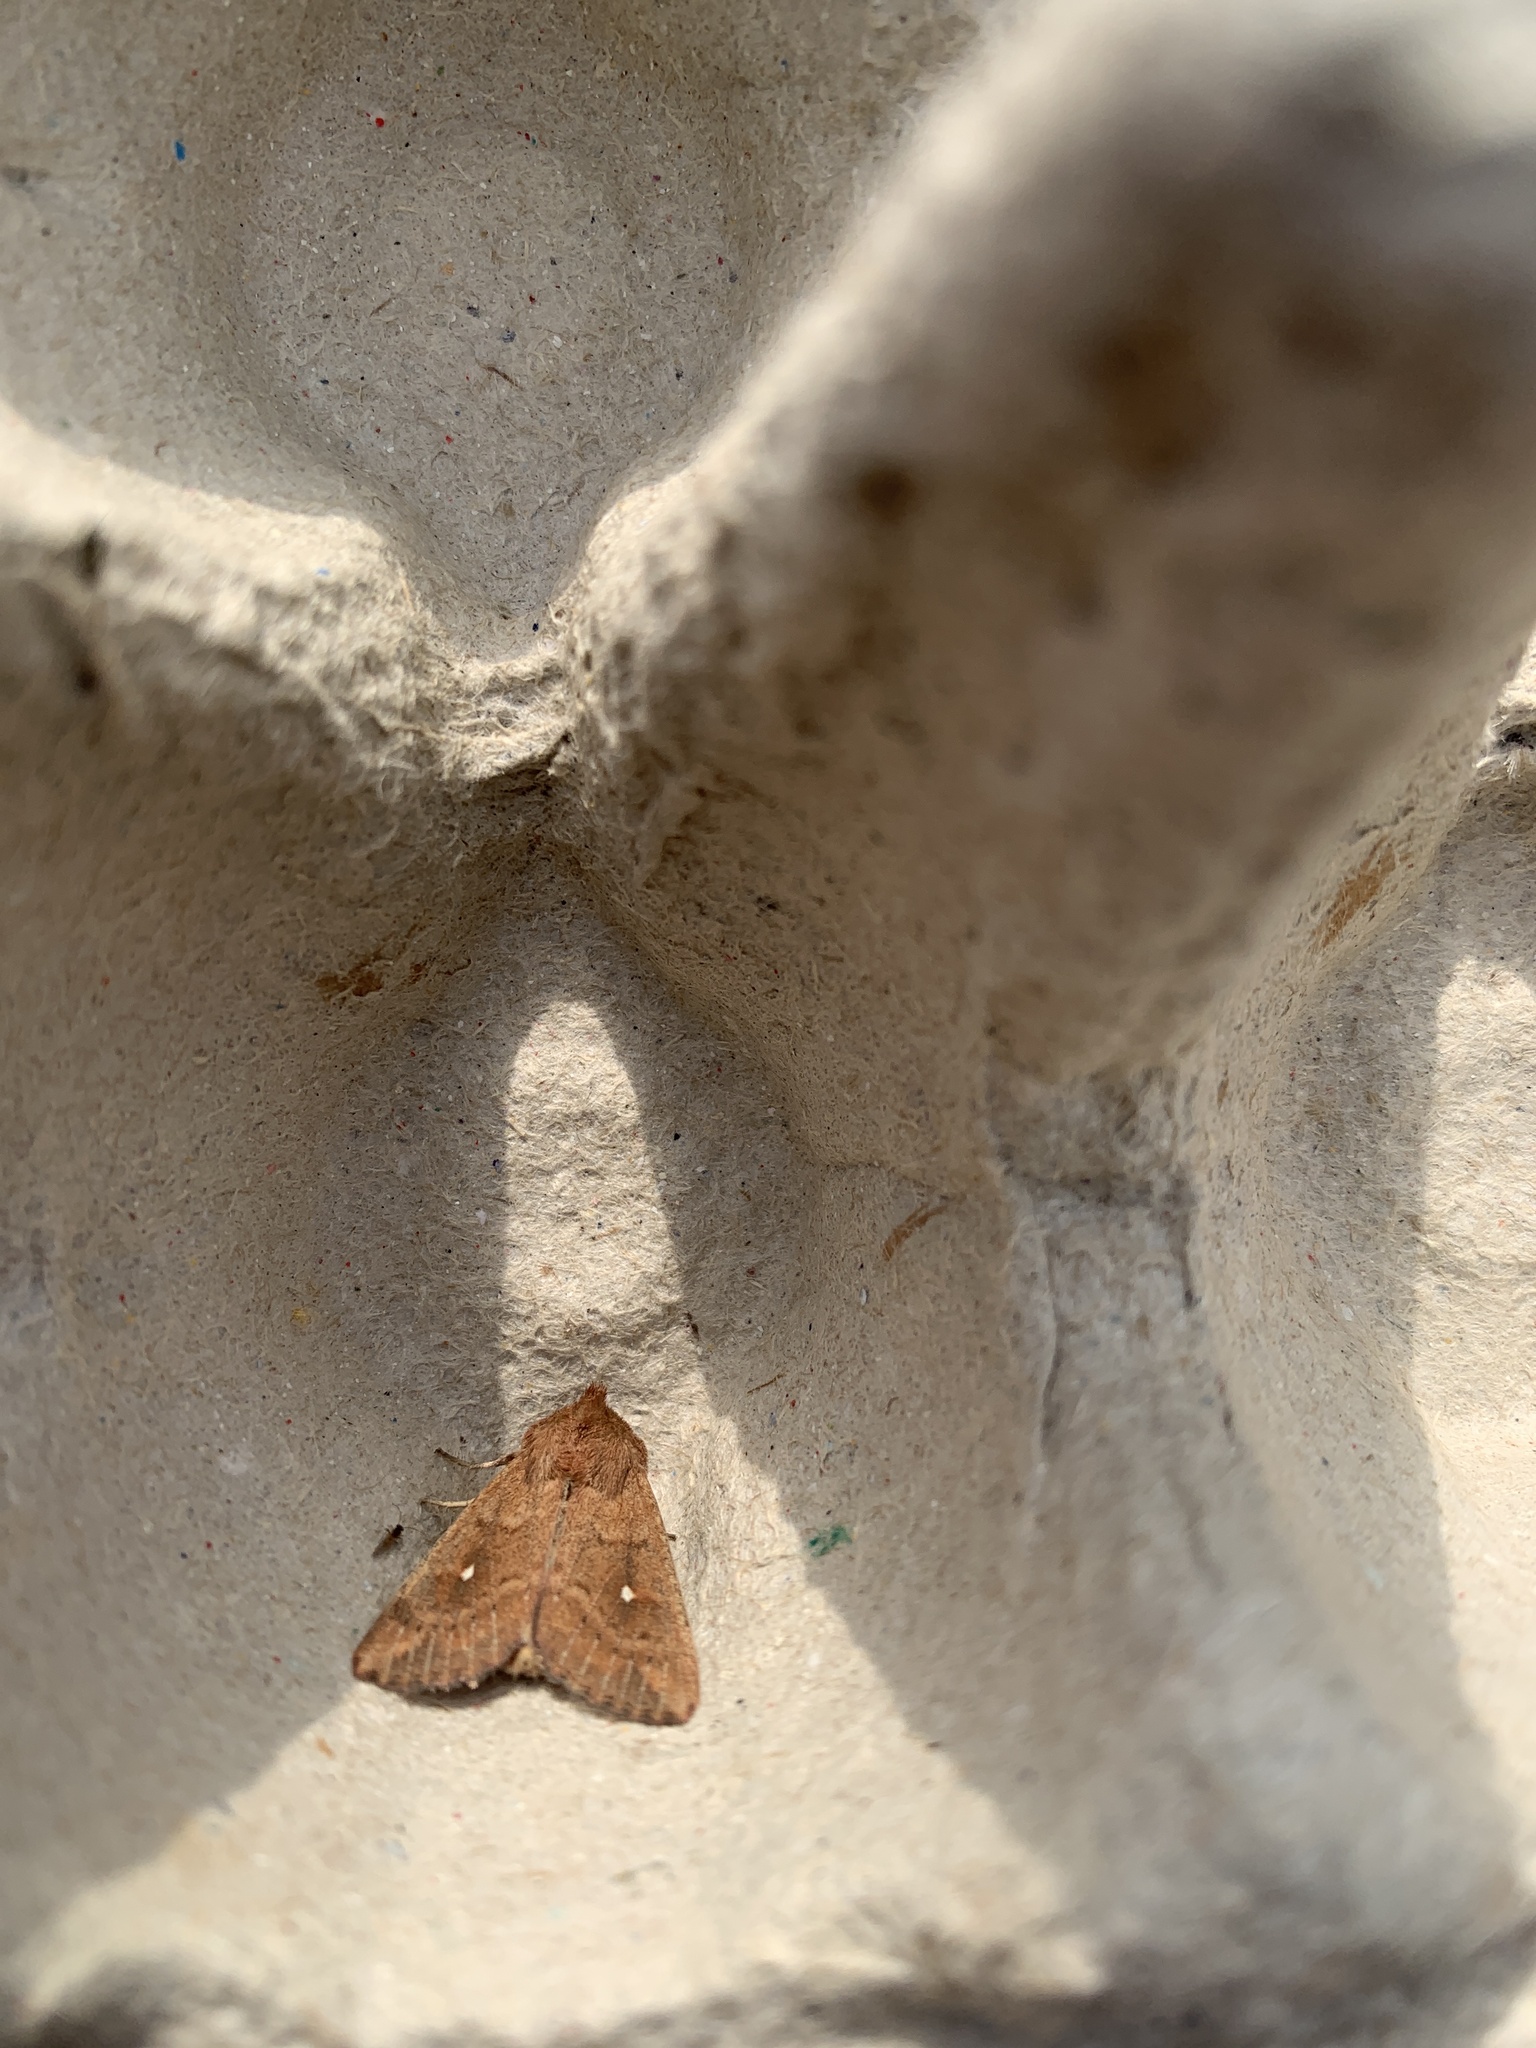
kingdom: Animalia
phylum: Arthropoda
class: Insecta
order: Lepidoptera
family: Noctuidae
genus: Mythimna
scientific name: Mythimna albipuncta
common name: White-point
